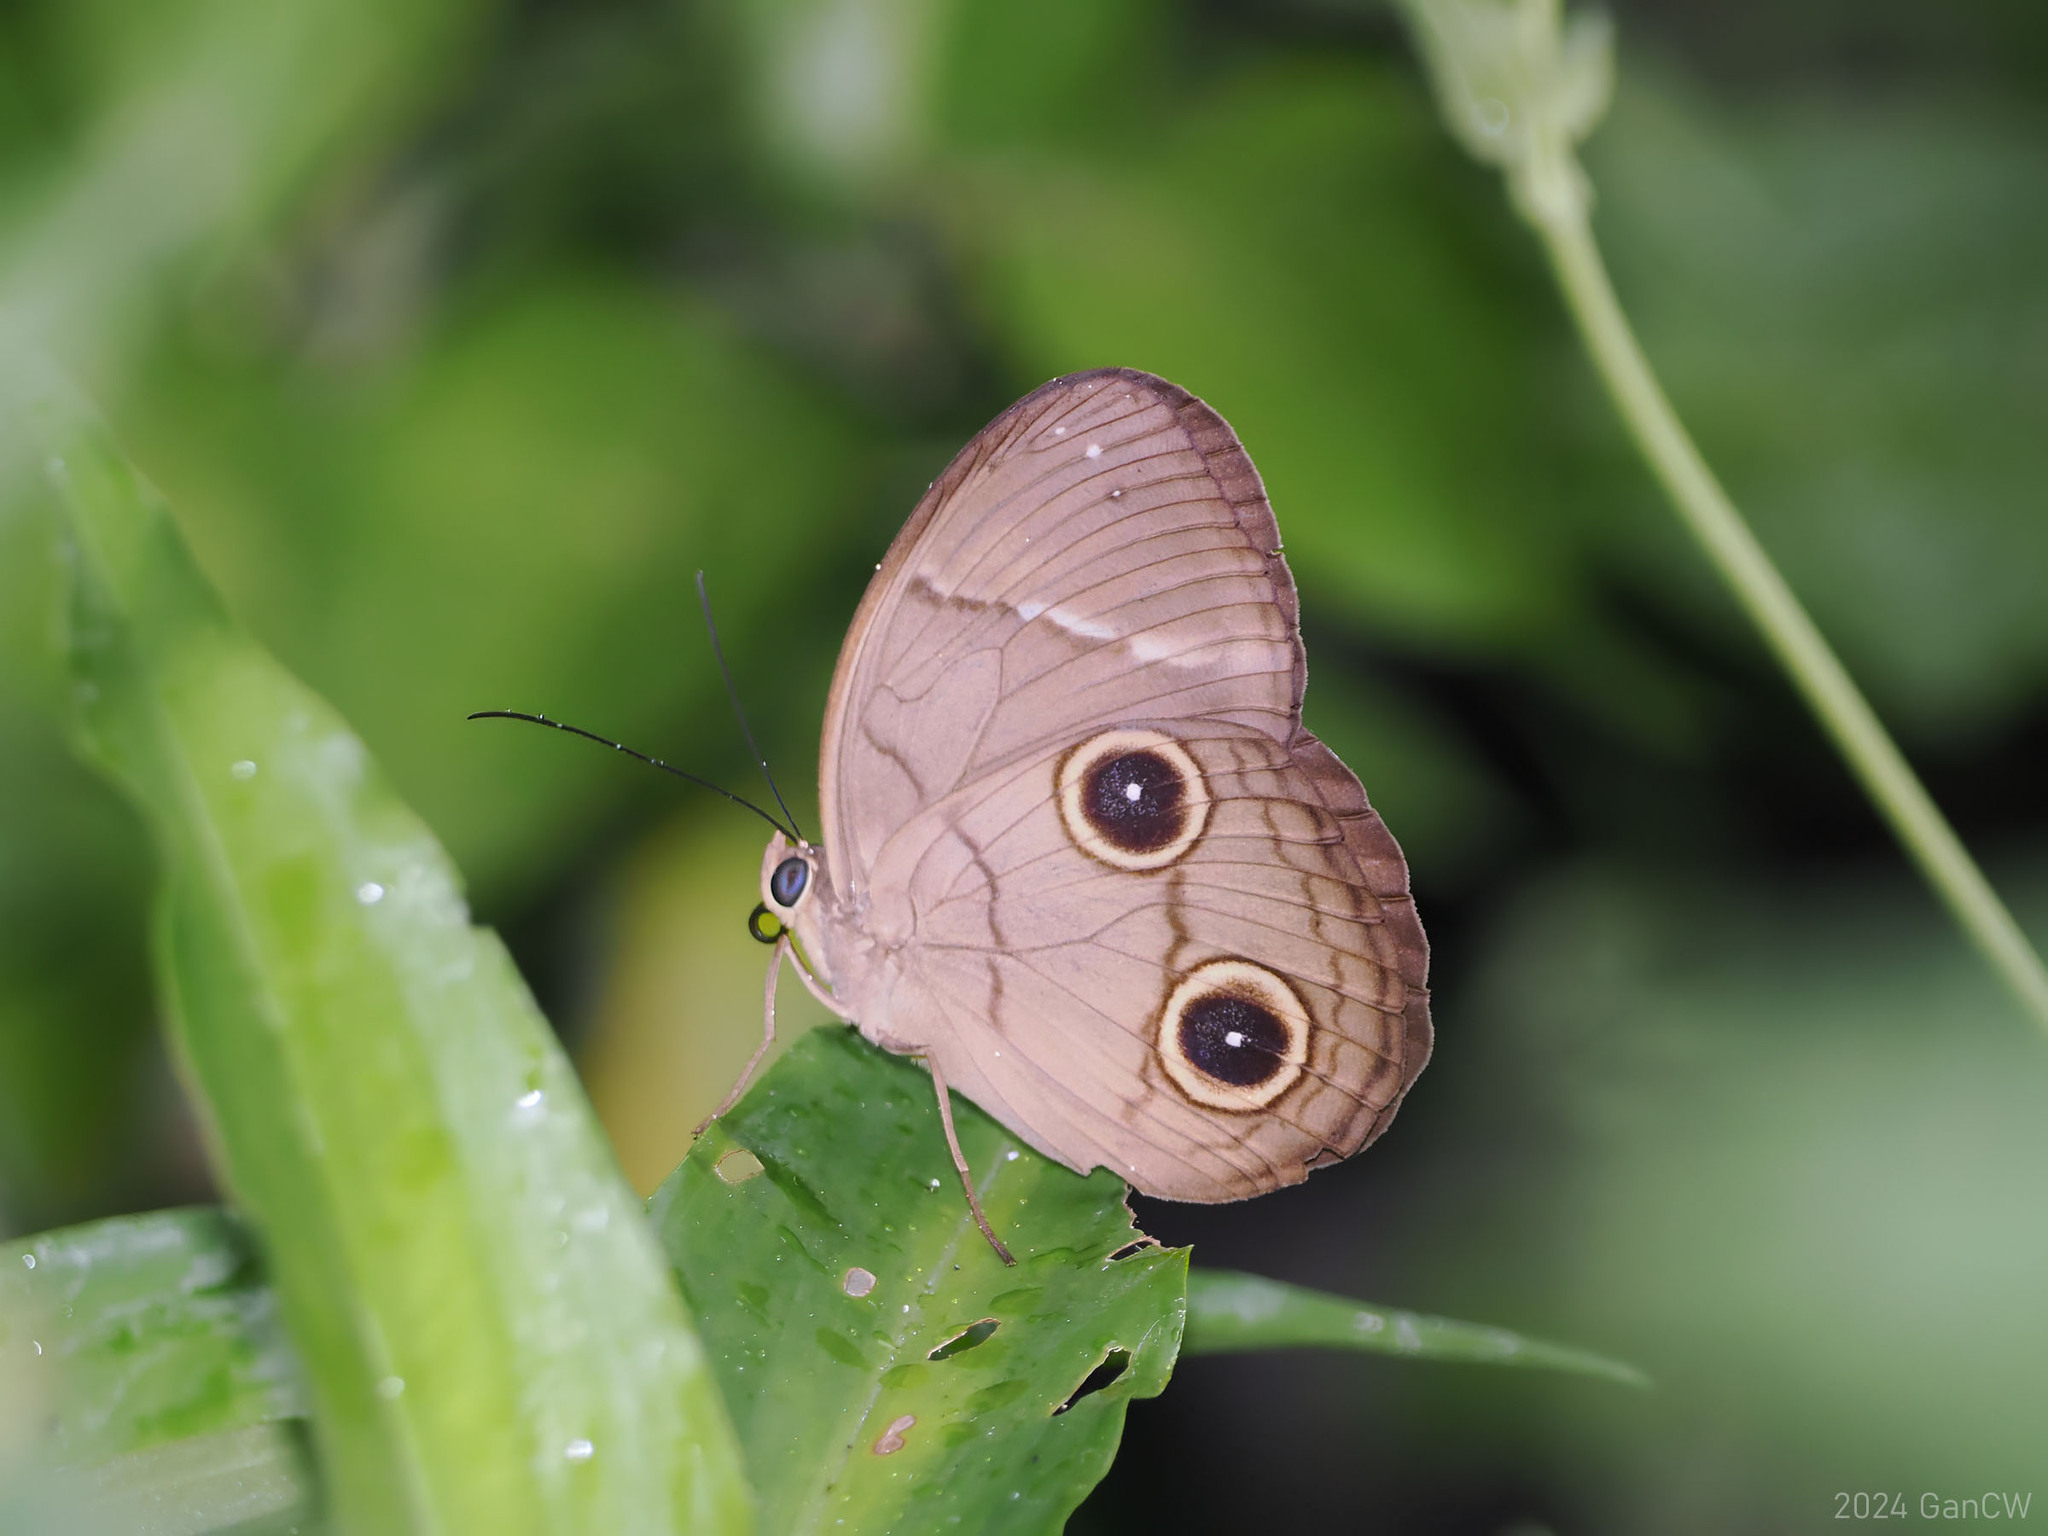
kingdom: Animalia
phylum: Arthropoda
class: Insecta
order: Lepidoptera
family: Nymphalidae
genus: Faunis
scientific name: Faunis sappho
